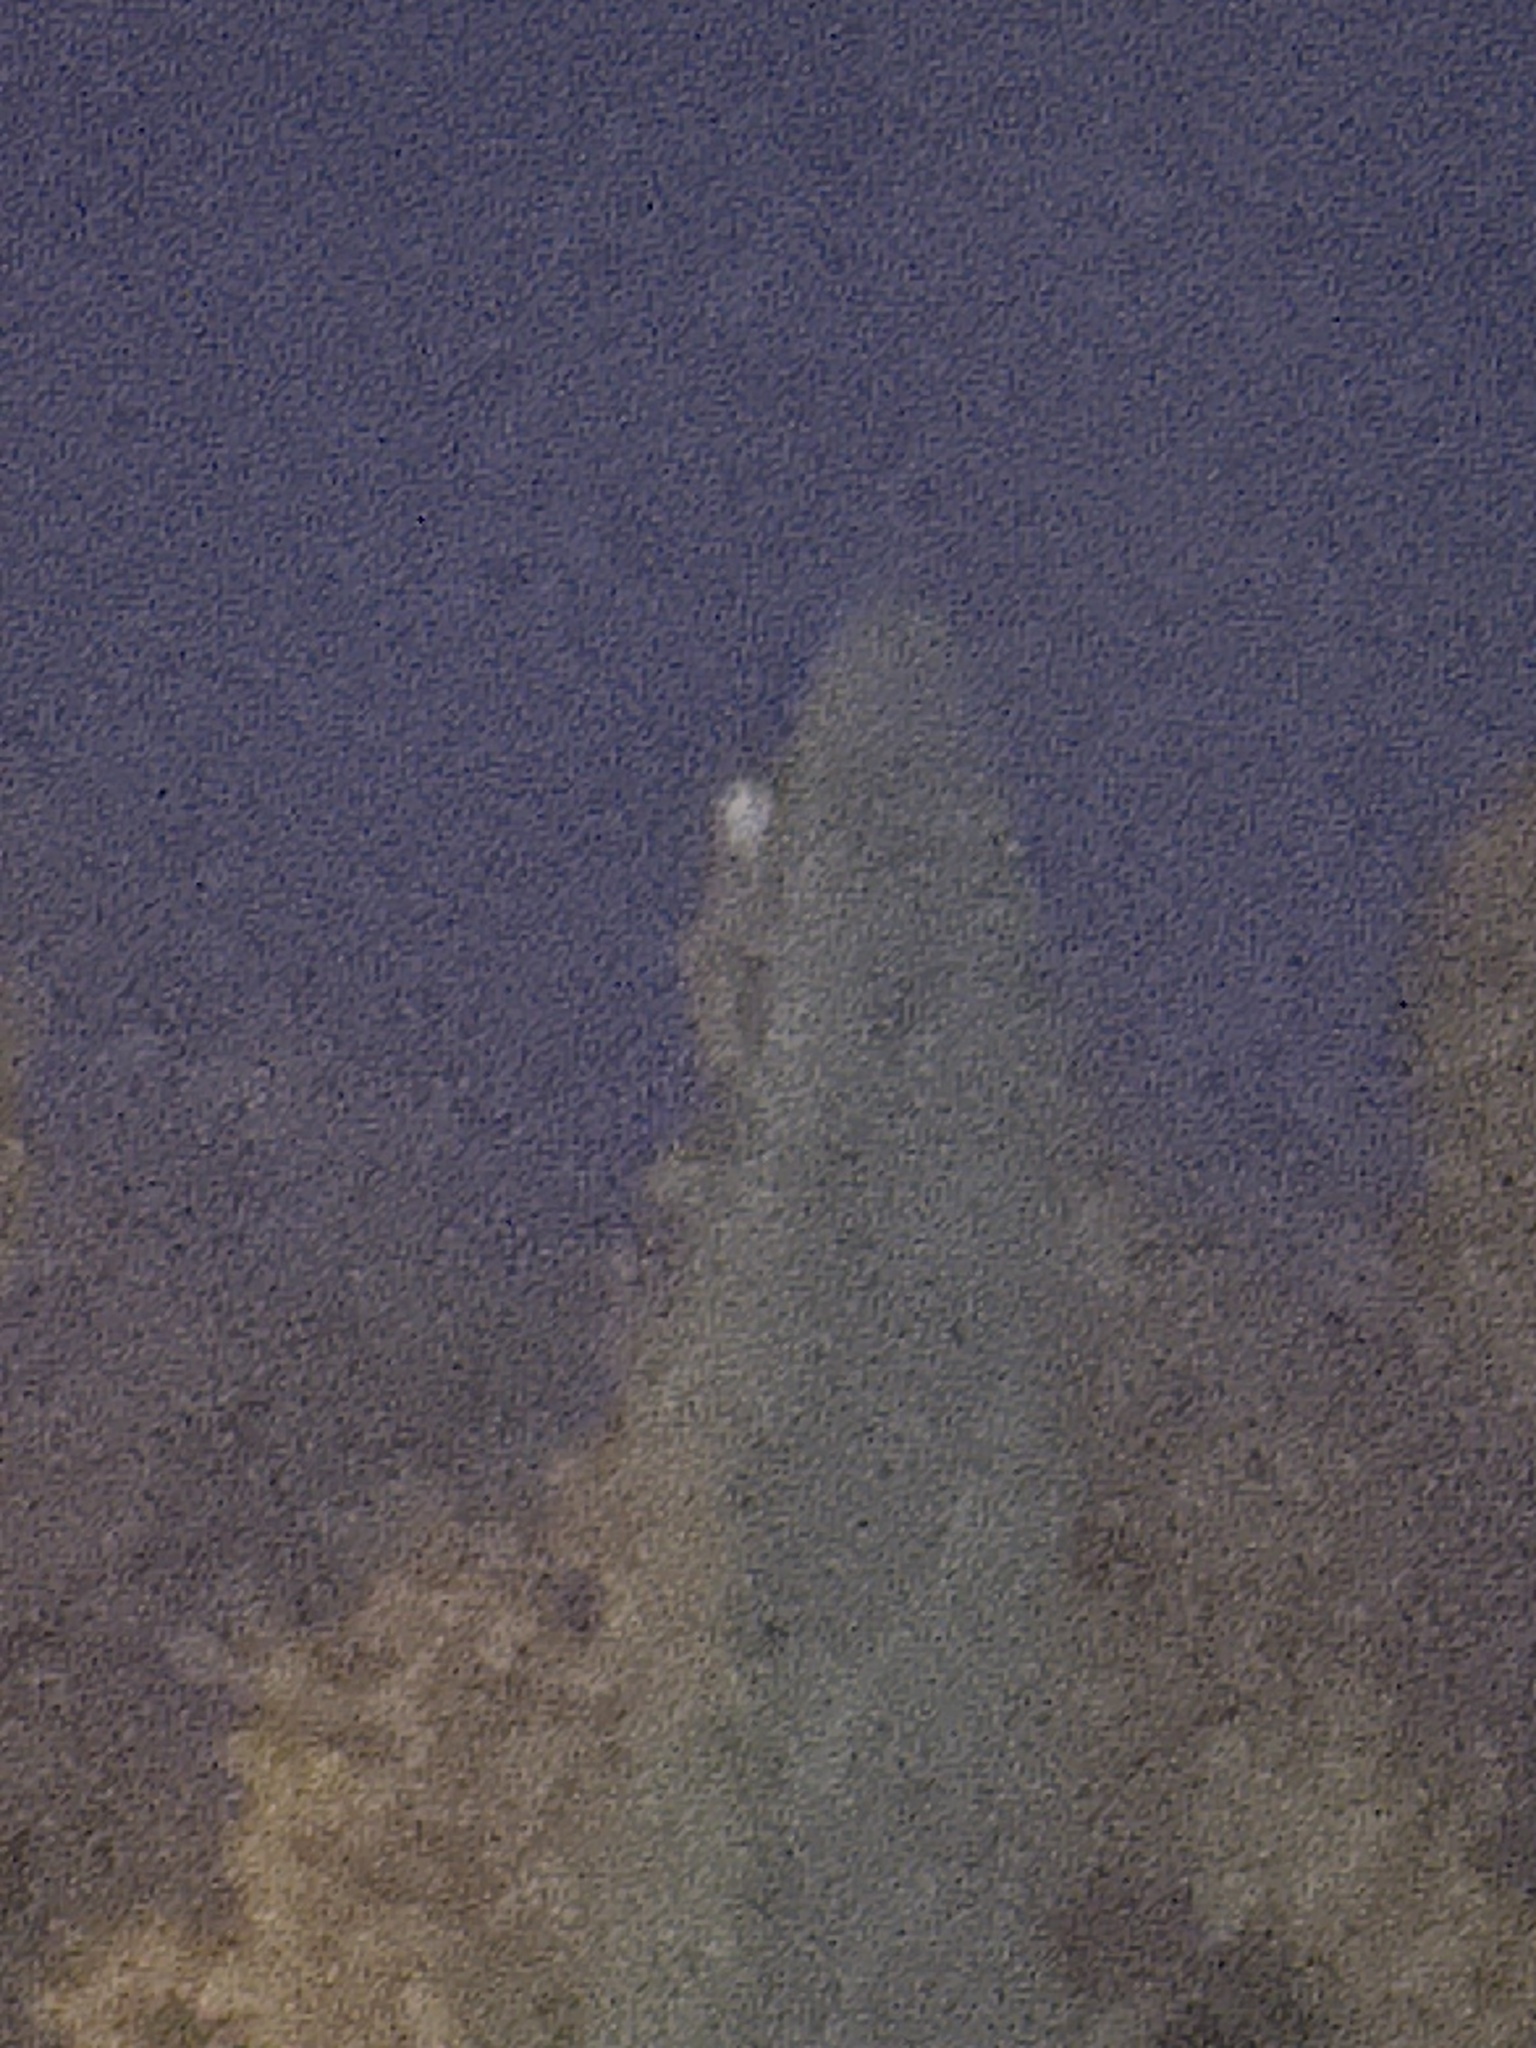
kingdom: Animalia
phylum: Chordata
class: Aves
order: Strigiformes
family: Strigidae
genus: Bubo
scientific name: Bubo virginianus
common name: Great horned owl
